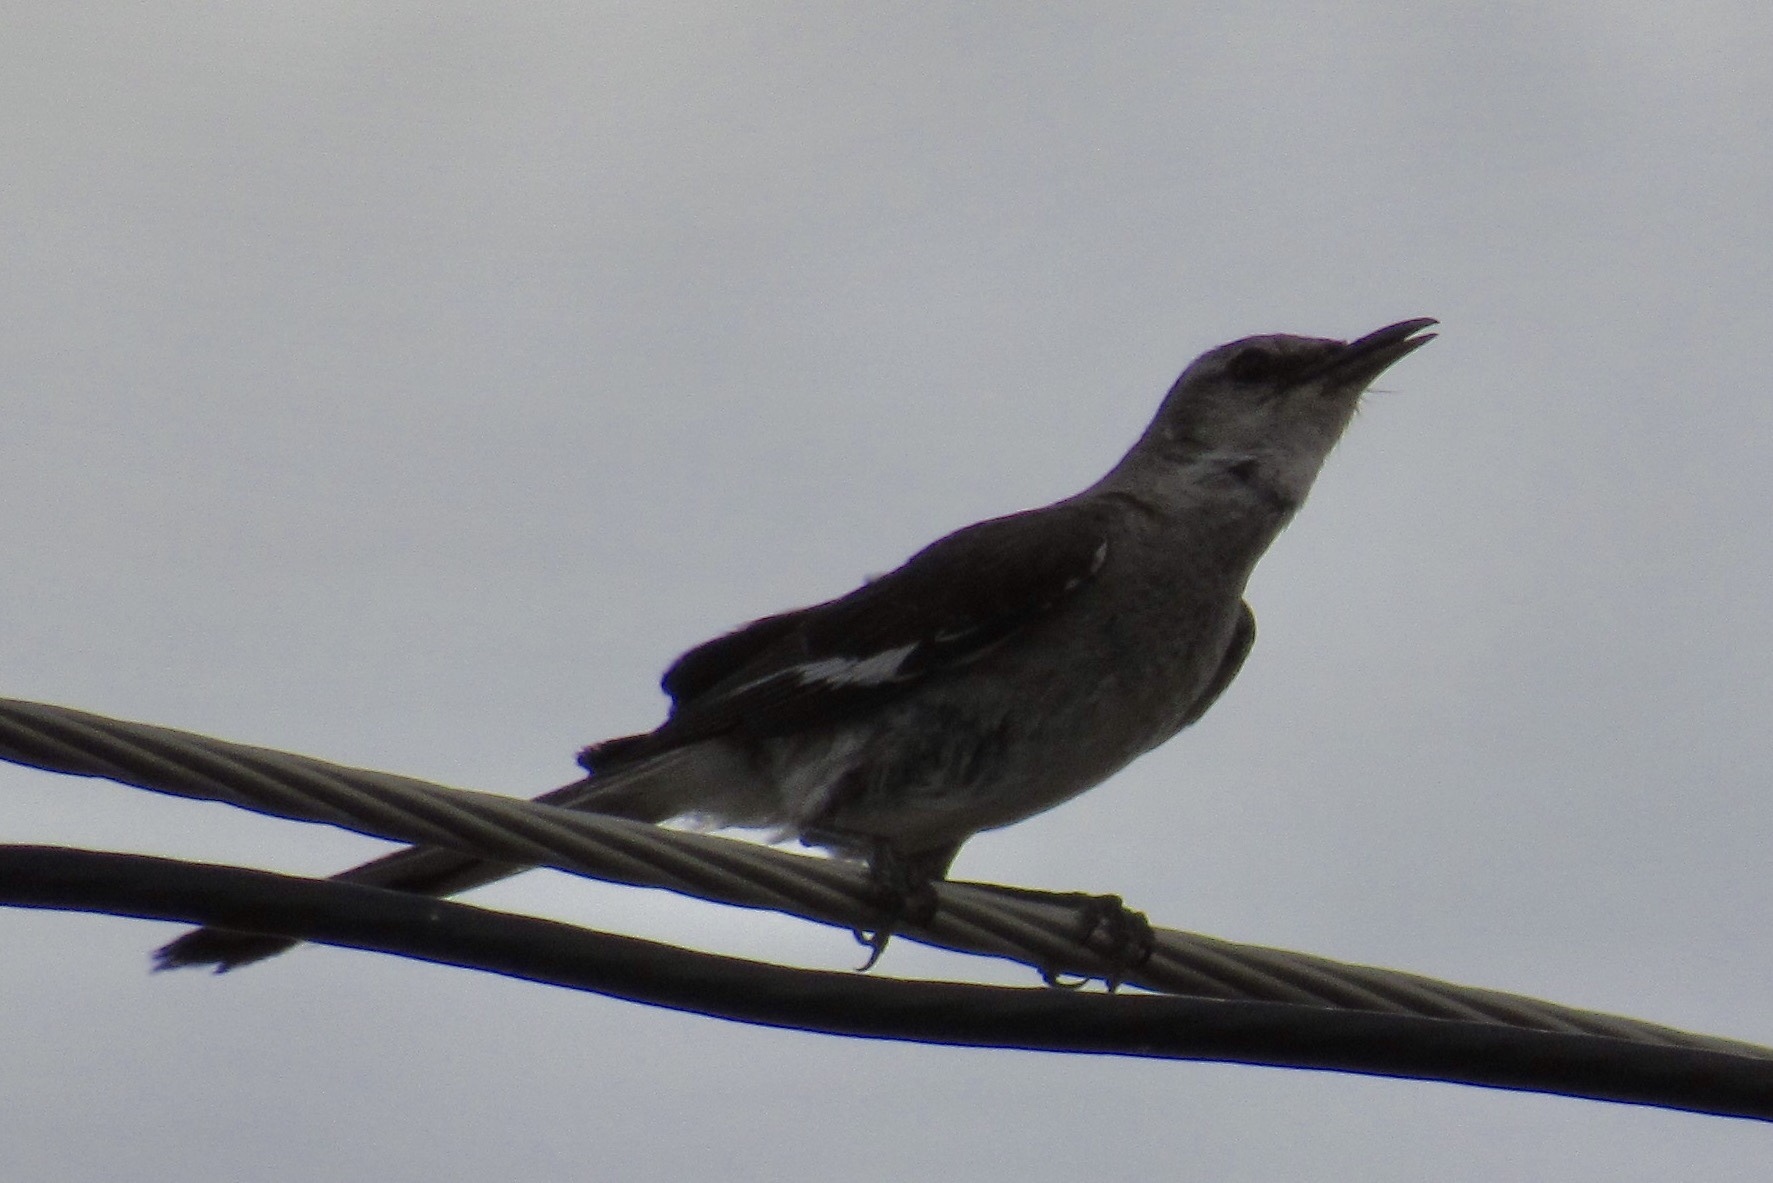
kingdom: Animalia
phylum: Chordata
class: Aves
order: Passeriformes
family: Mimidae
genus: Mimus
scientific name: Mimus polyglottos
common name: Northern mockingbird
